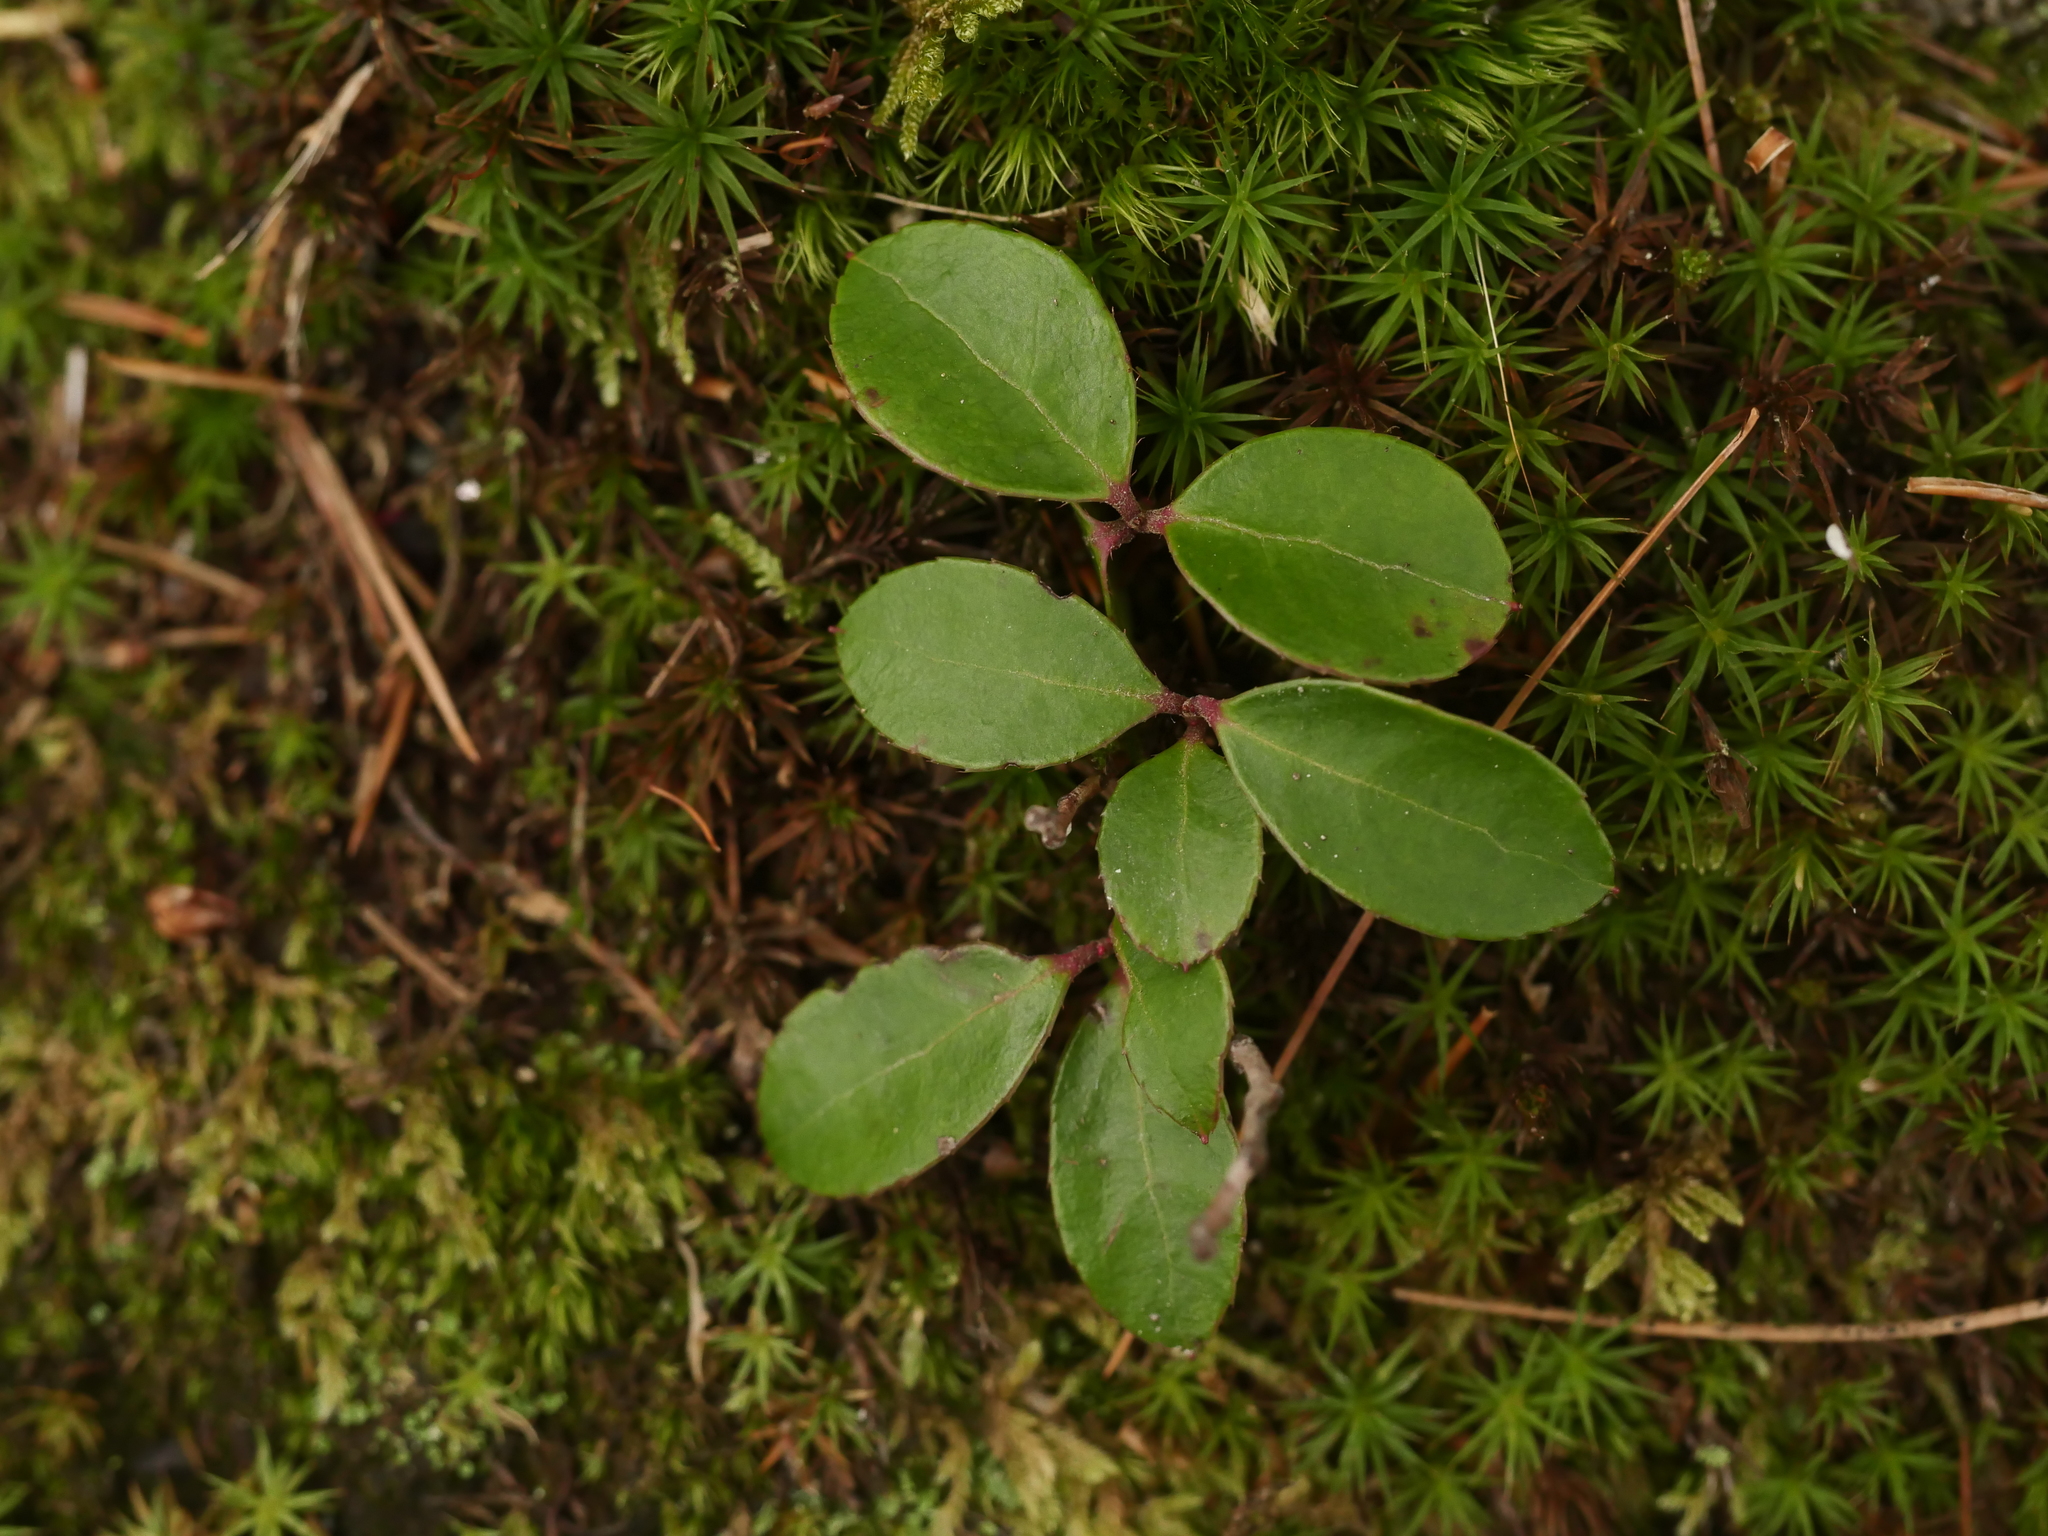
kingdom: Plantae
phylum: Tracheophyta
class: Magnoliopsida
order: Ericales
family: Ericaceae
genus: Gaultheria
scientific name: Gaultheria procumbens
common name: Checkerberry
